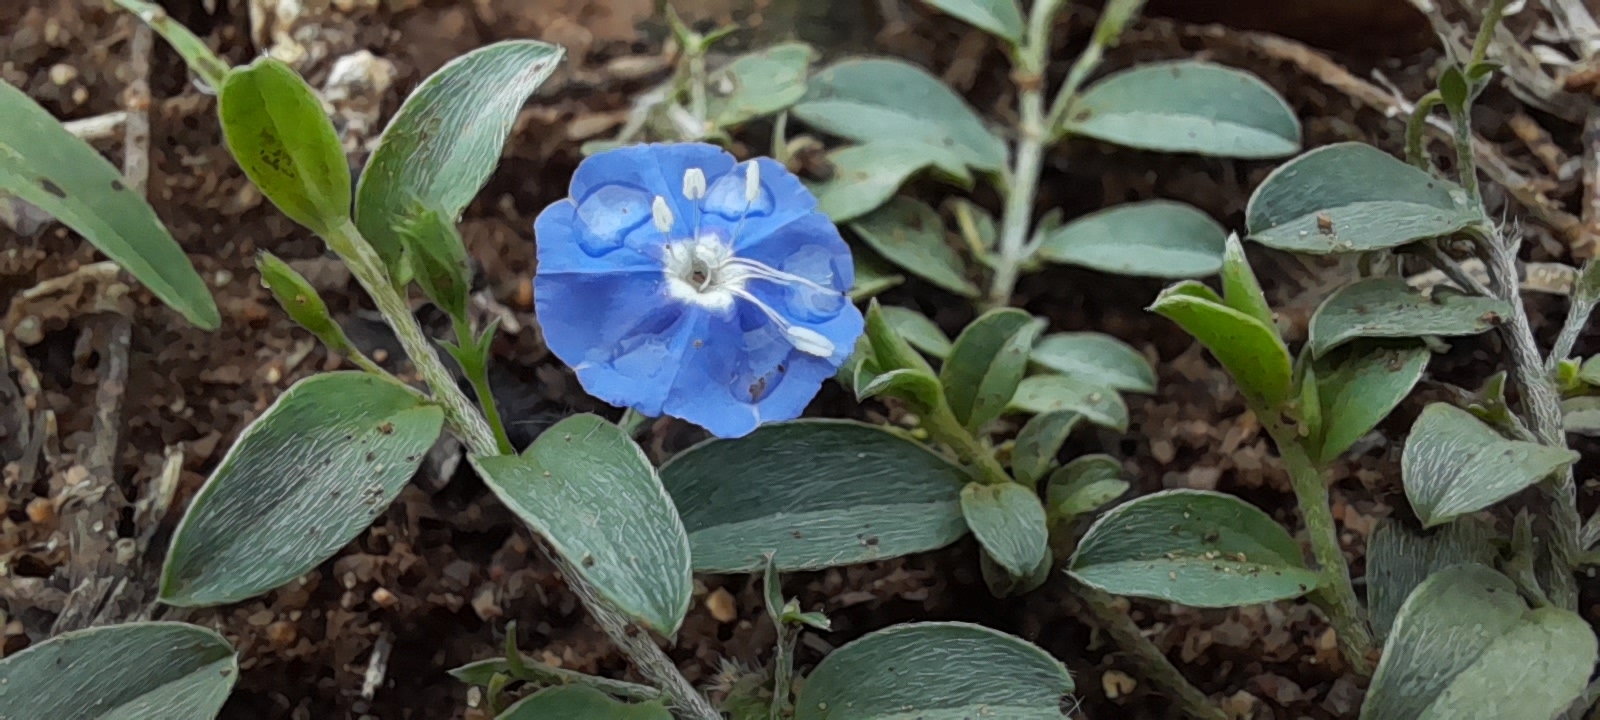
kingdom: Plantae
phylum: Tracheophyta
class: Magnoliopsida
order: Solanales
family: Convolvulaceae
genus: Evolvulus
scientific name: Evolvulus alsinoides
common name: Slender dwarf morning-glory
